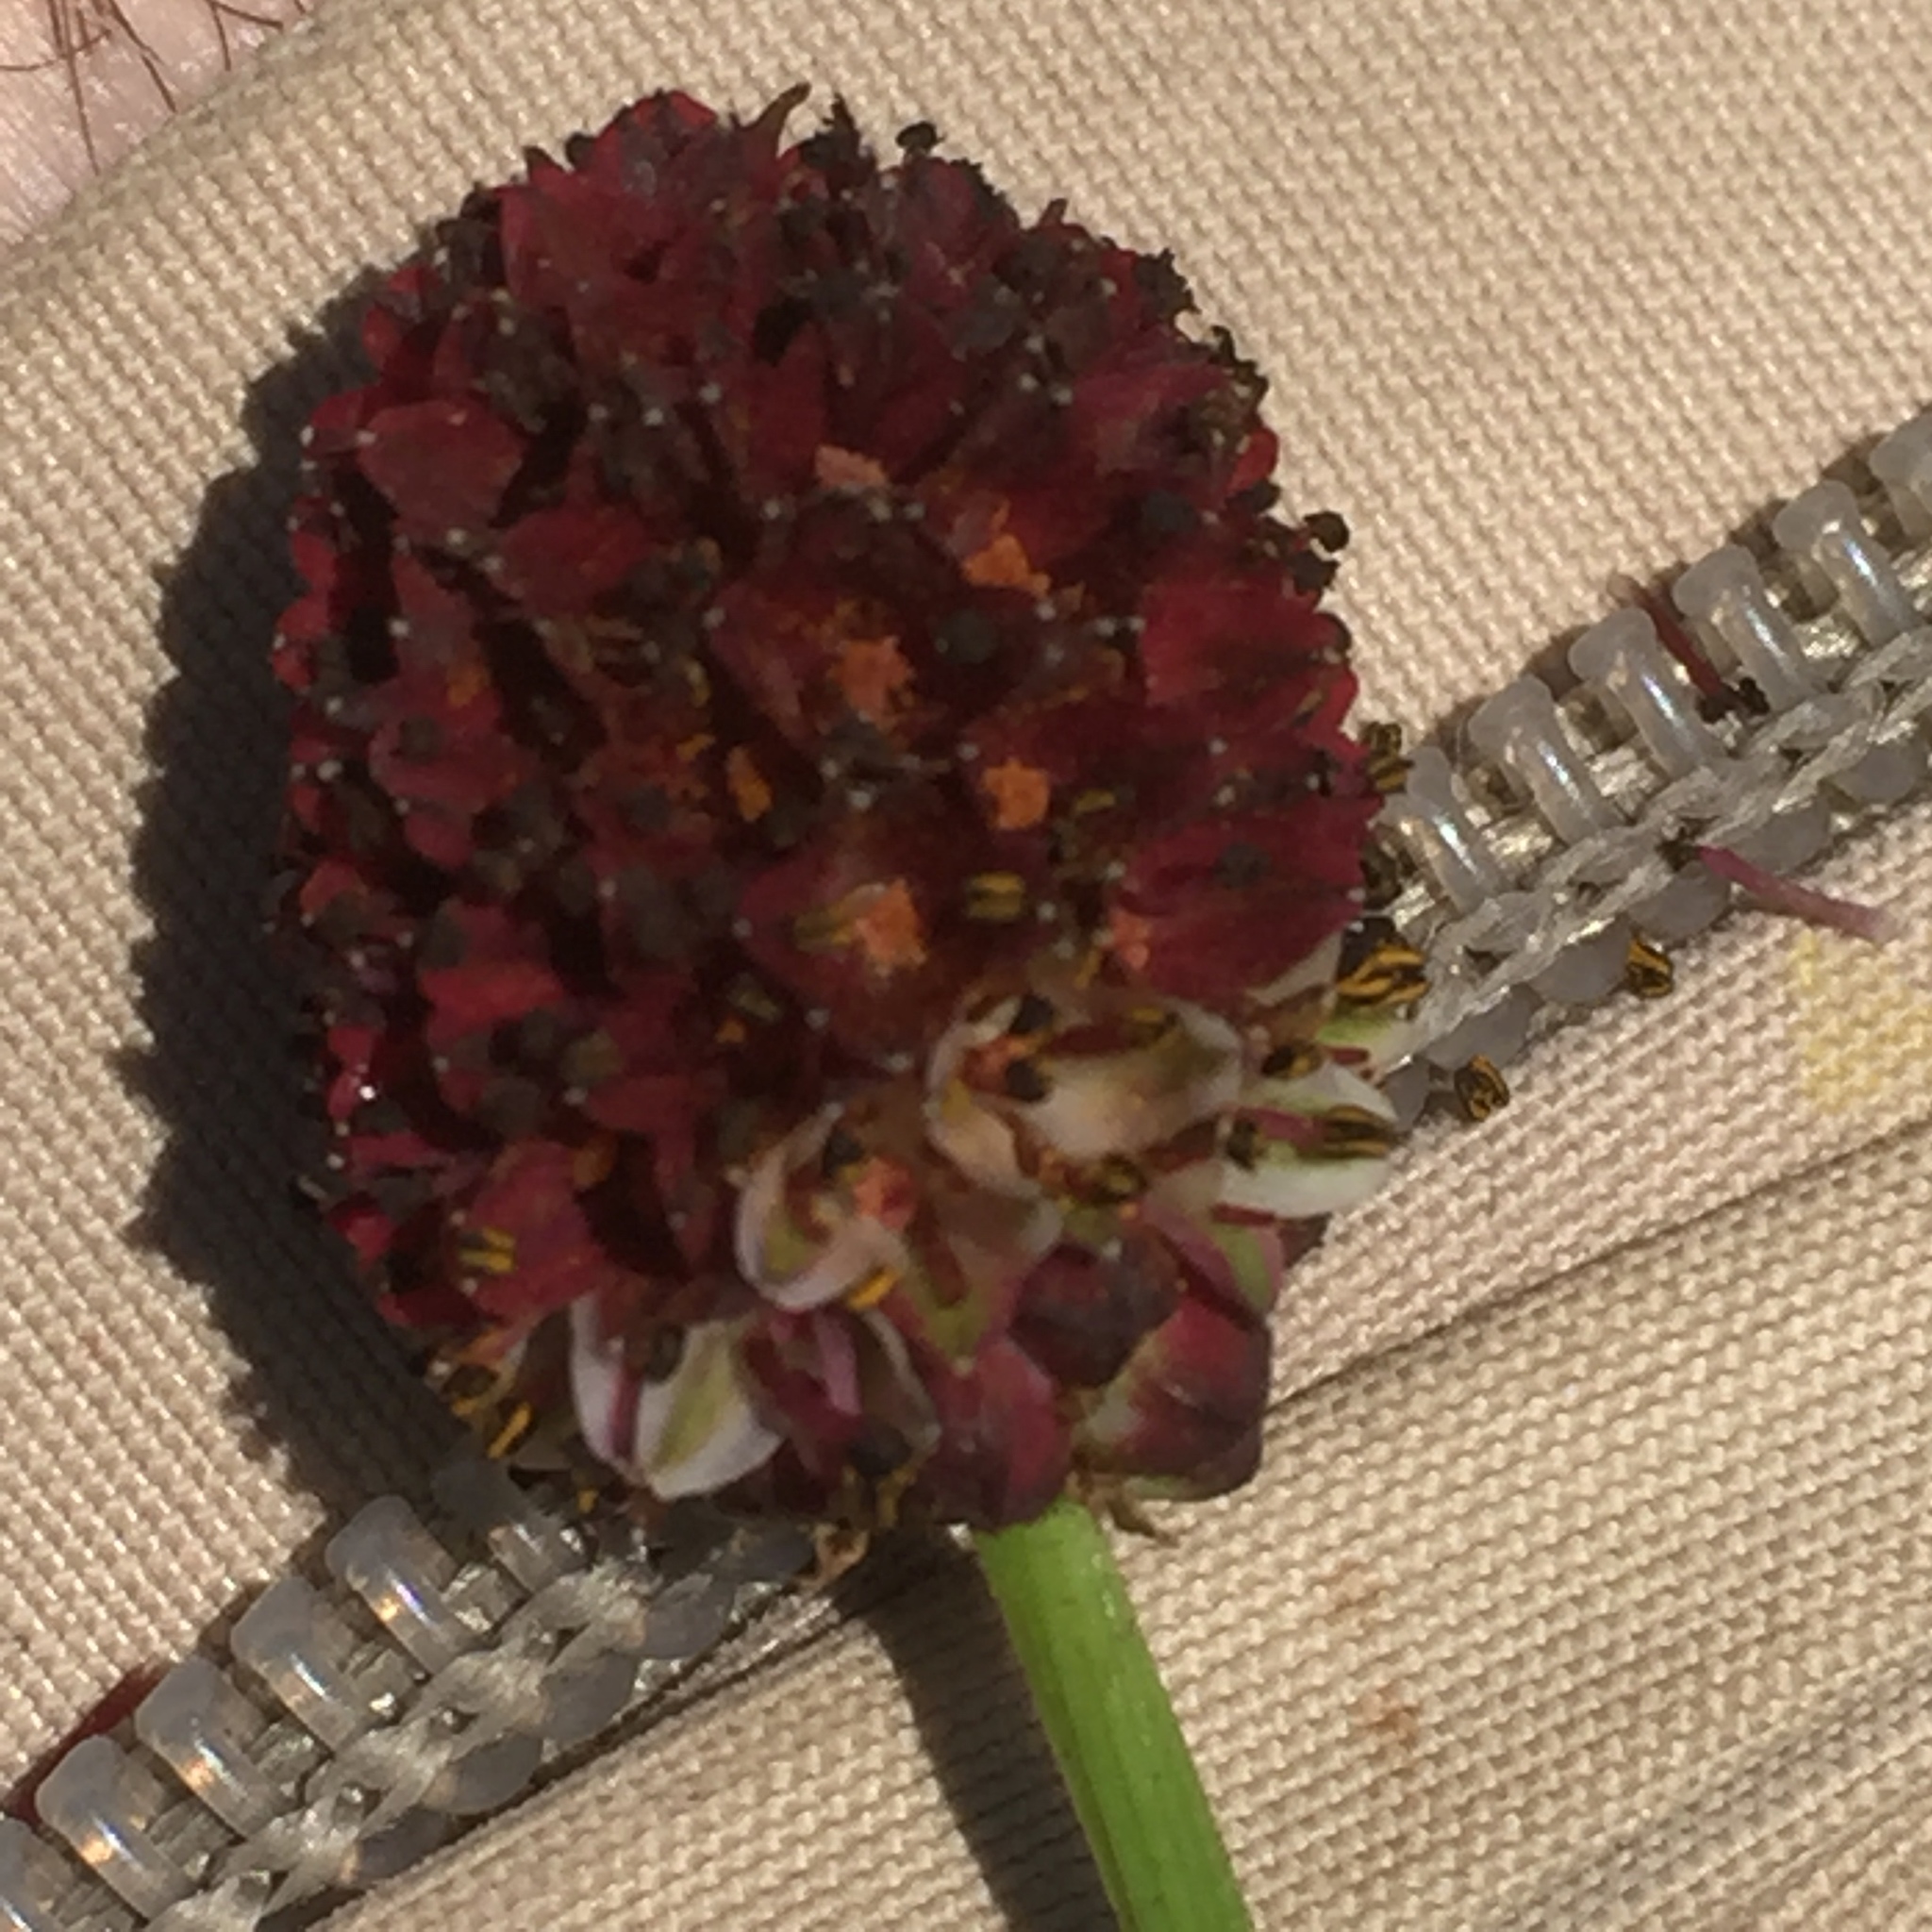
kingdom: Plantae
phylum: Tracheophyta
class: Magnoliopsida
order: Rosales
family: Rosaceae
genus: Sanguisorba
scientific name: Sanguisorba officinalis
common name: Great burnet
